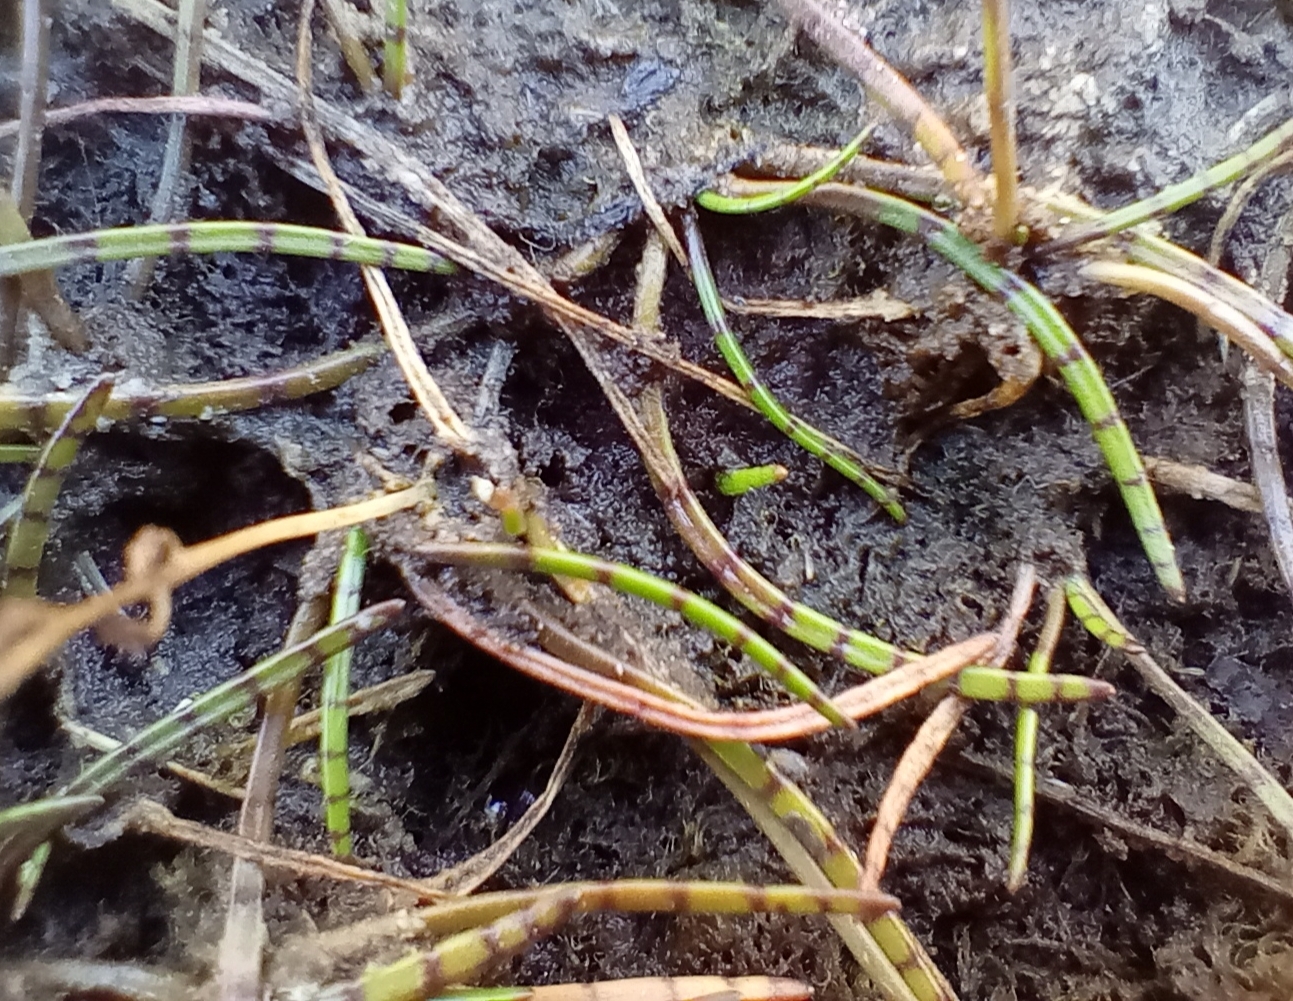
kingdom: Plantae
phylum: Tracheophyta
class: Magnoliopsida
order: Apiales
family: Apiaceae
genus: Lilaeopsis
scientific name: Lilaeopsis novae-zelandiae
